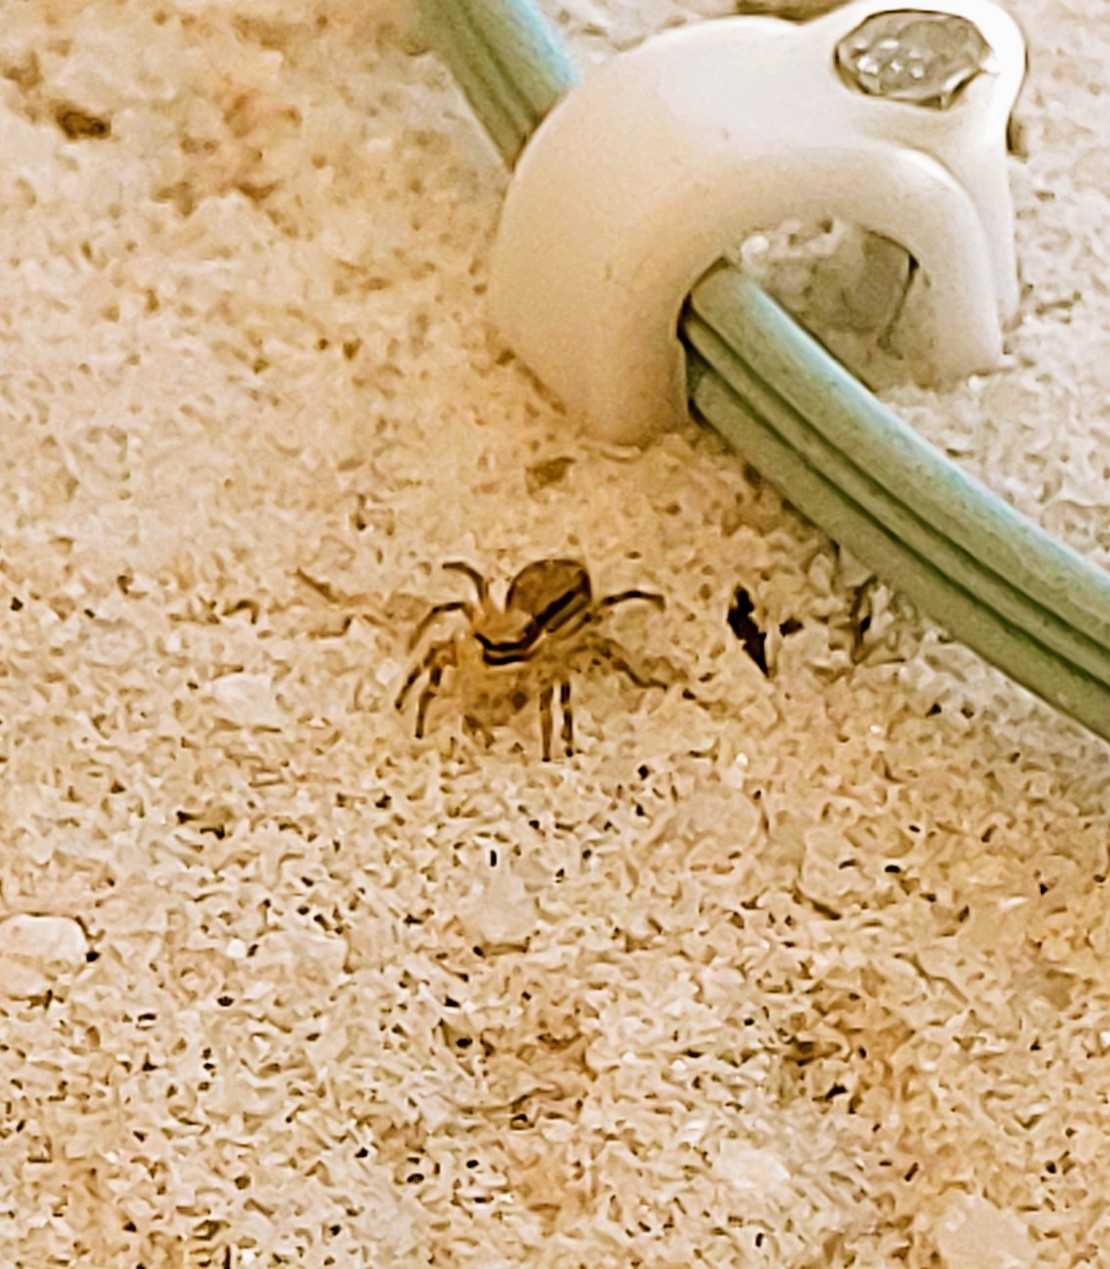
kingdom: Animalia
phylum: Arthropoda
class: Arachnida
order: Araneae
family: Salticidae
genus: Menemerus
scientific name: Menemerus bivittatus
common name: Gray wall jumper
